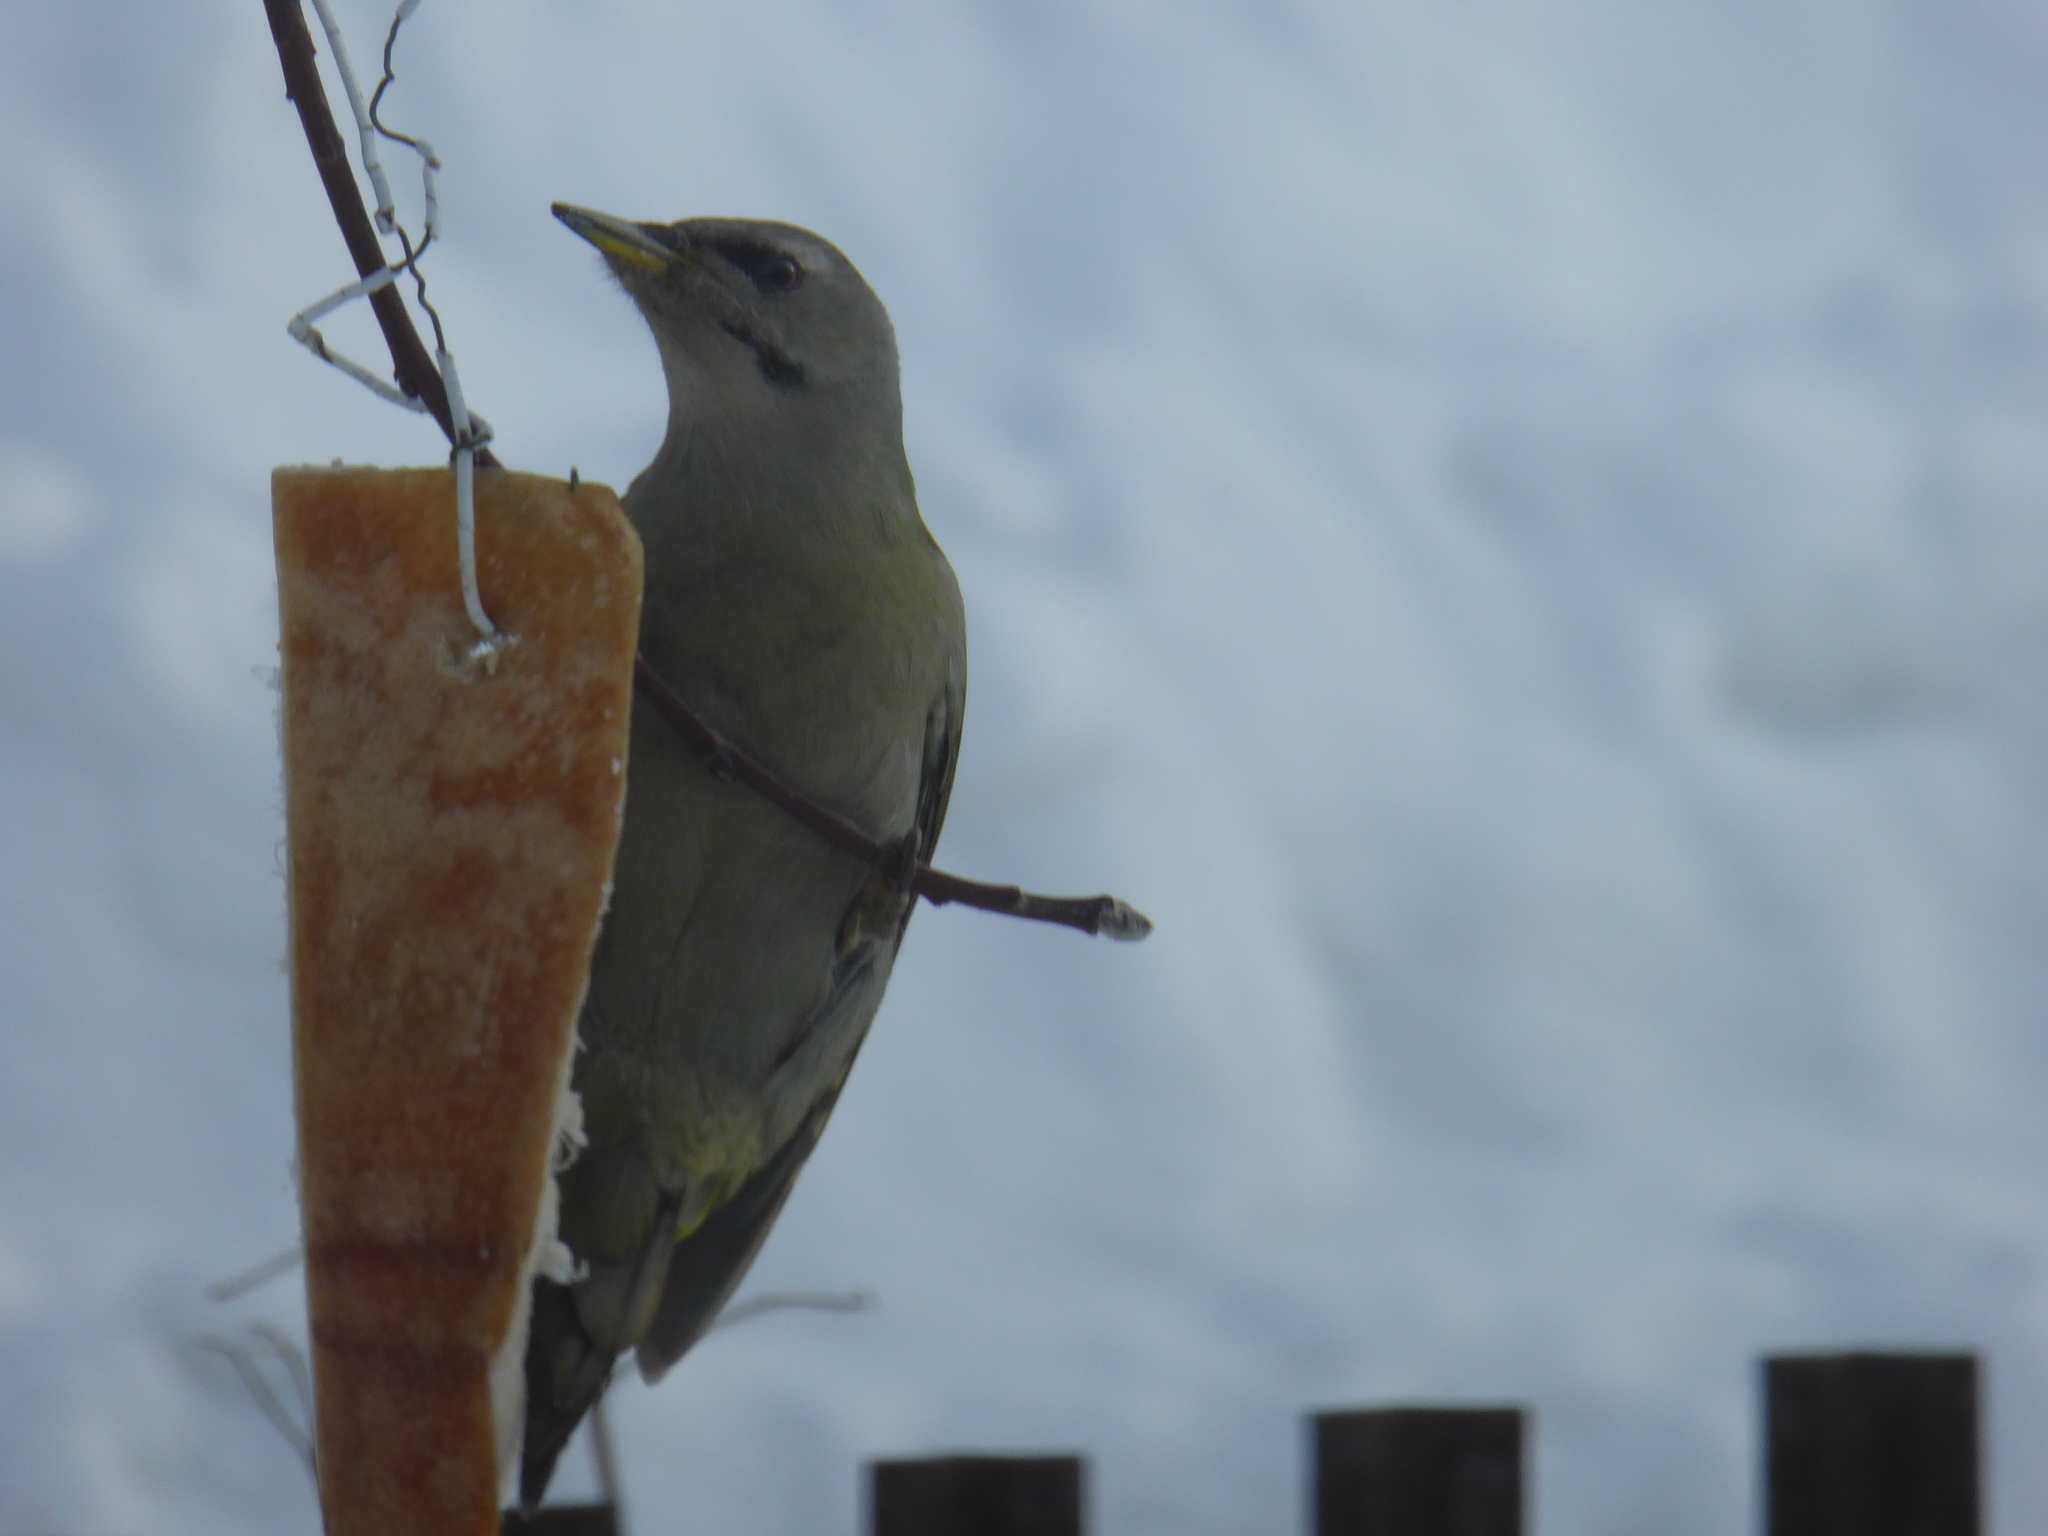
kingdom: Animalia
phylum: Chordata
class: Aves
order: Piciformes
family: Picidae
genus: Picus
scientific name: Picus canus
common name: Grey-headed woodpecker
